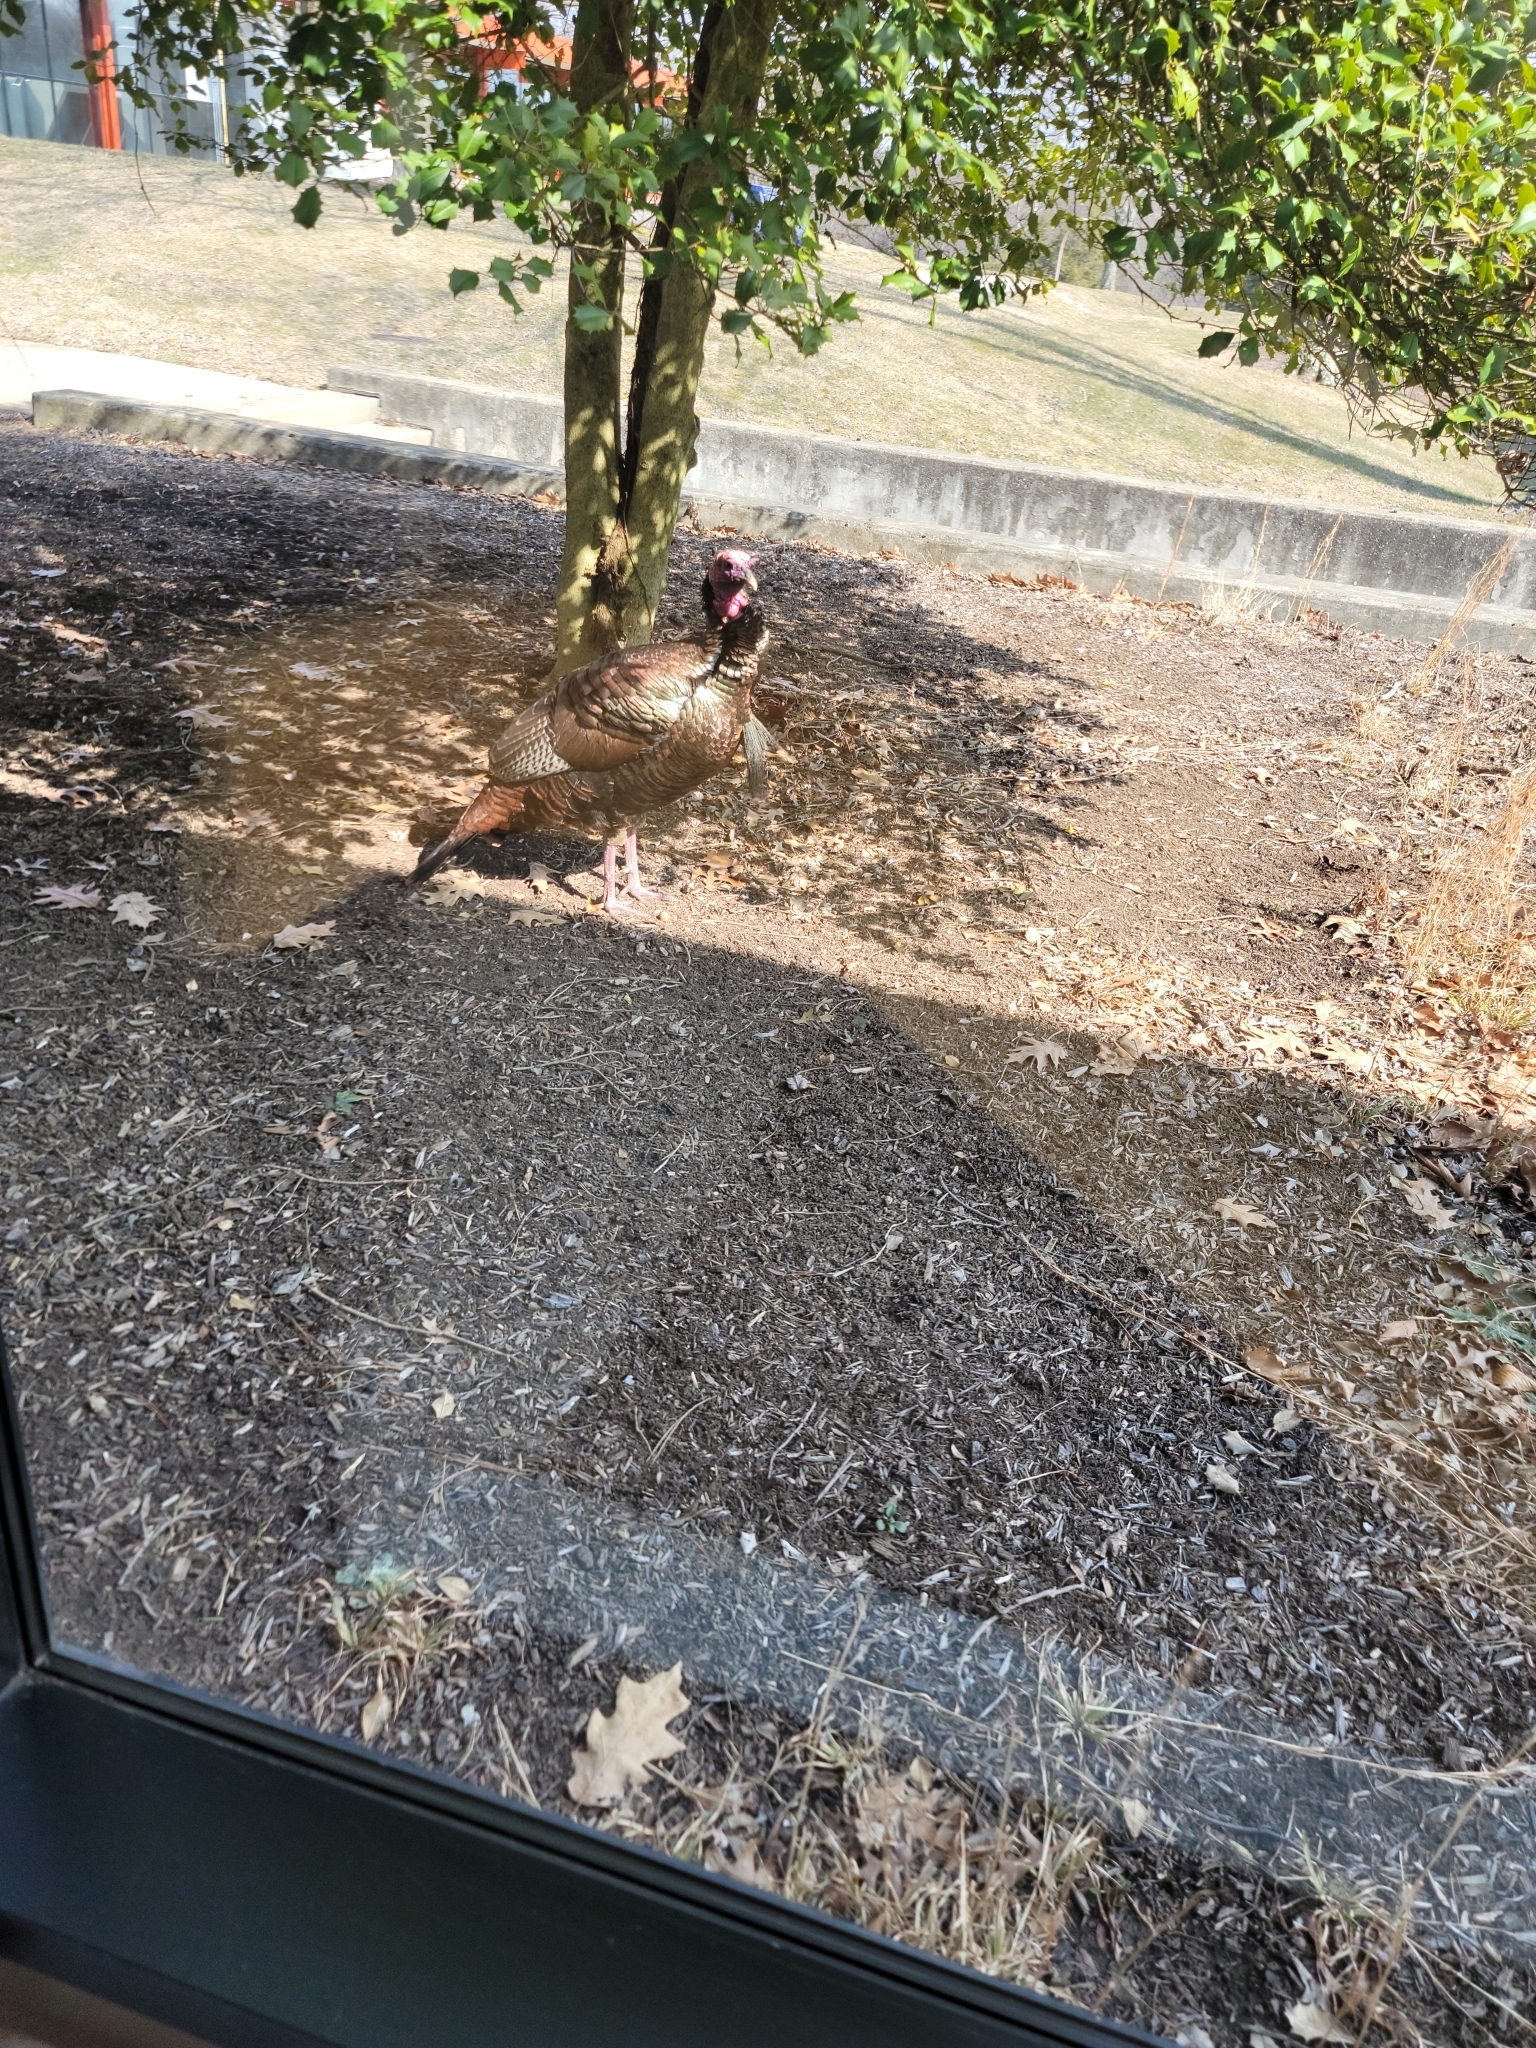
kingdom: Animalia
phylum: Chordata
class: Aves
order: Galliformes
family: Phasianidae
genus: Meleagris
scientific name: Meleagris gallopavo
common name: Wild turkey
